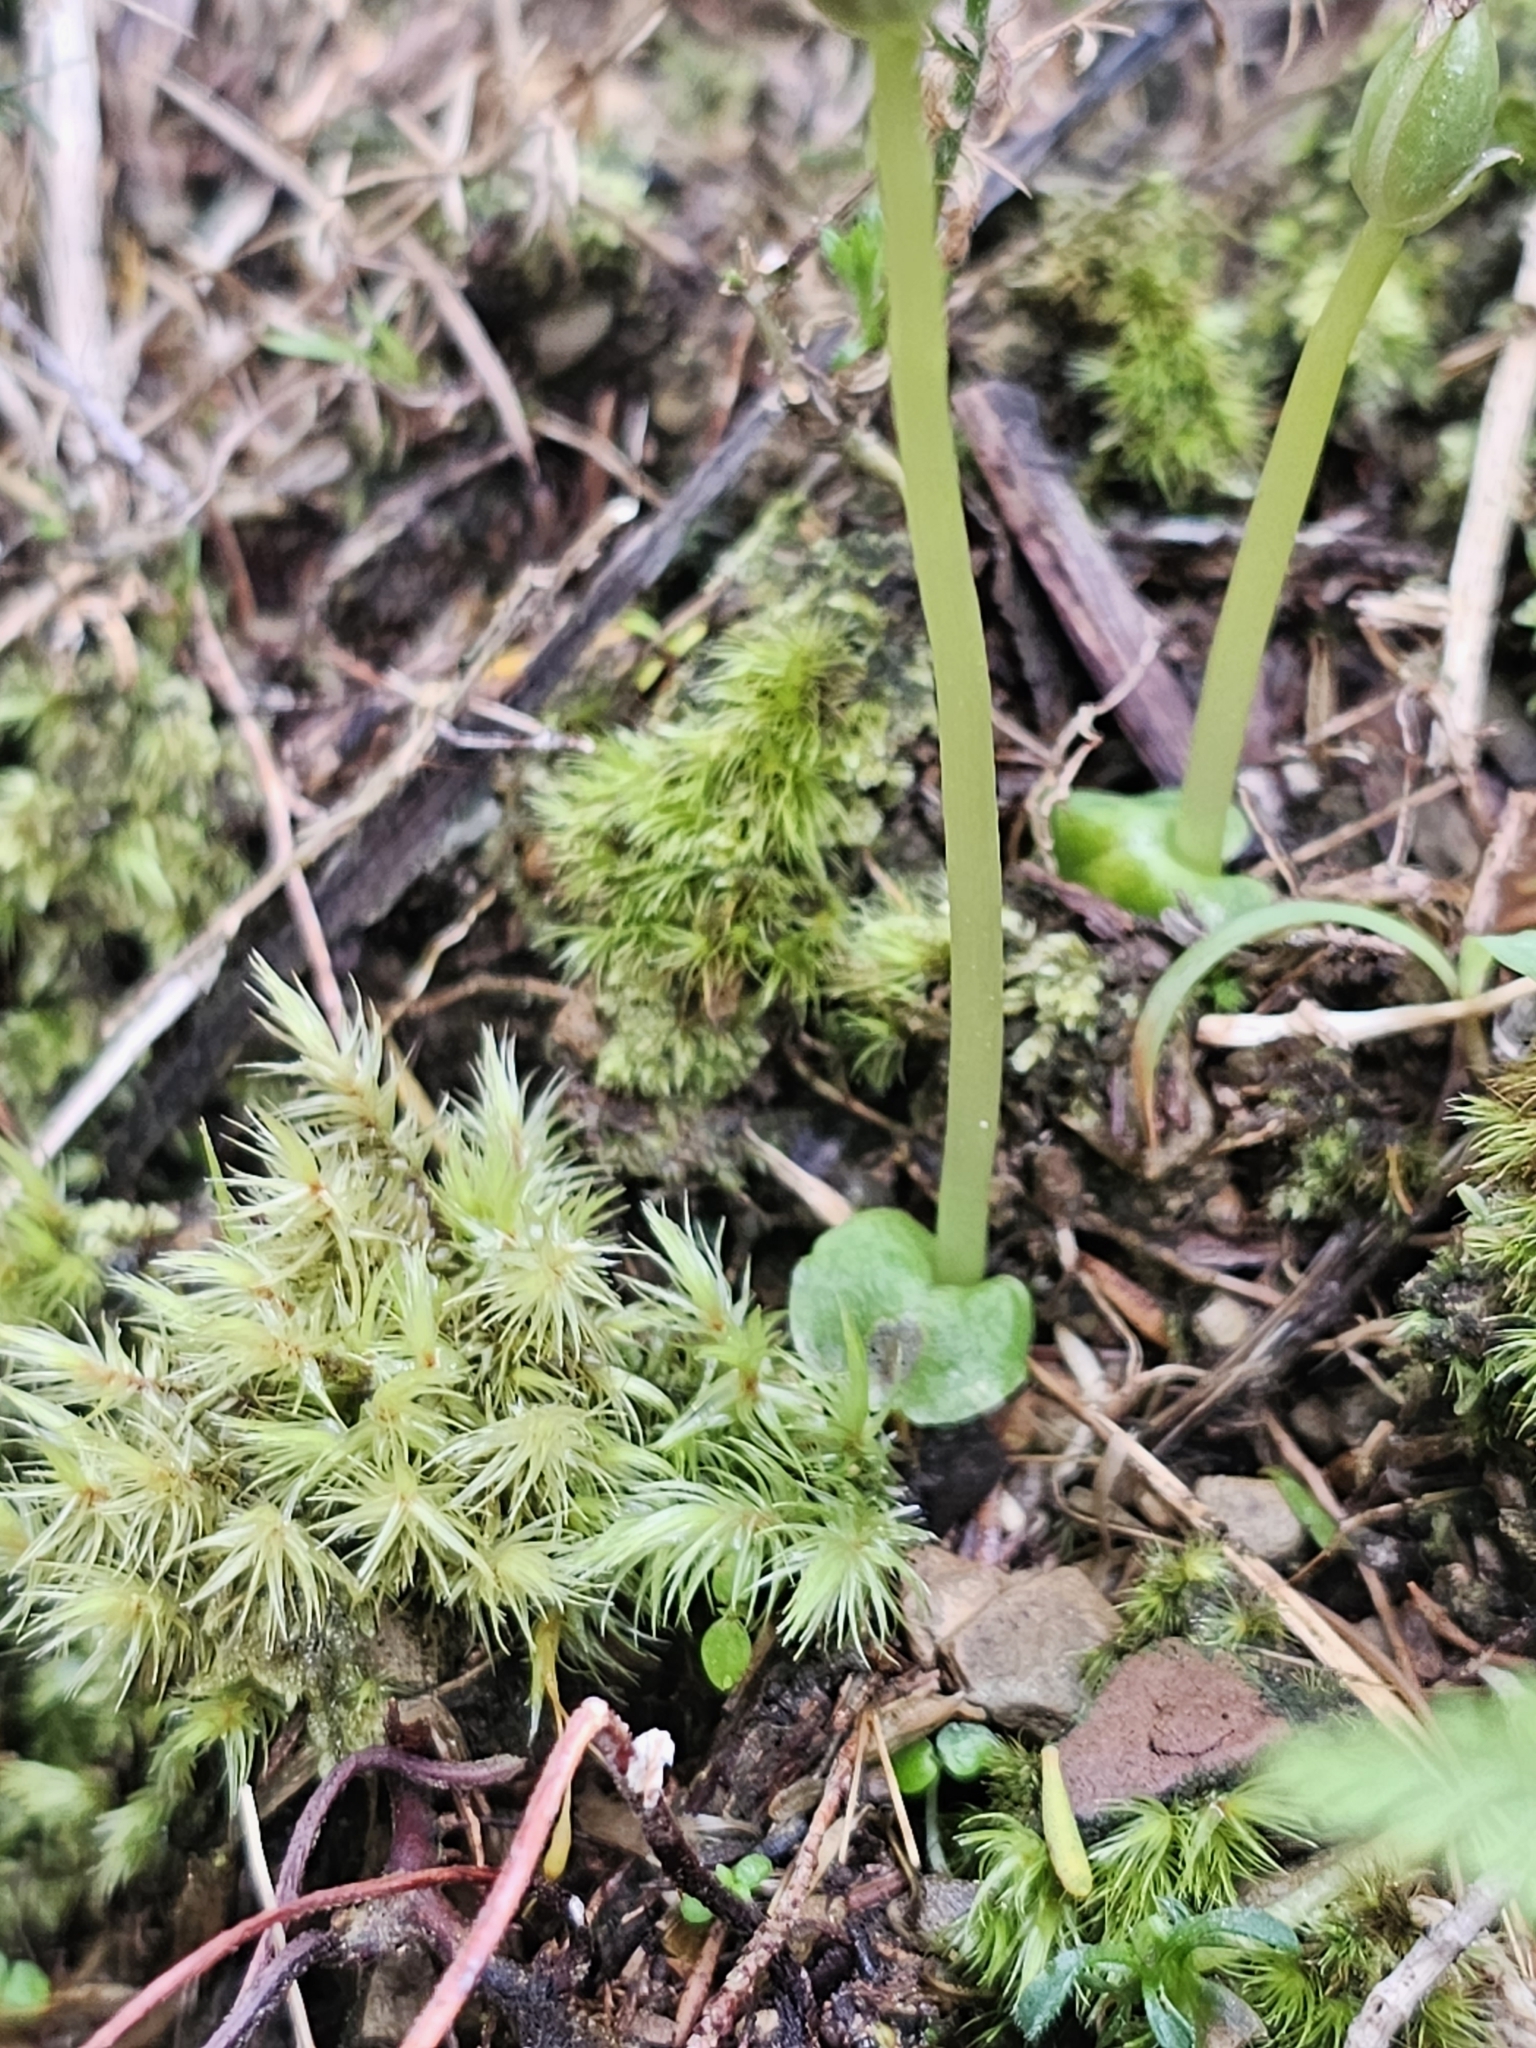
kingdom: Plantae
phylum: Tracheophyta
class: Liliopsida
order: Asparagales
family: Orchidaceae
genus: Corybas
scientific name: Corybas cheesemanii
